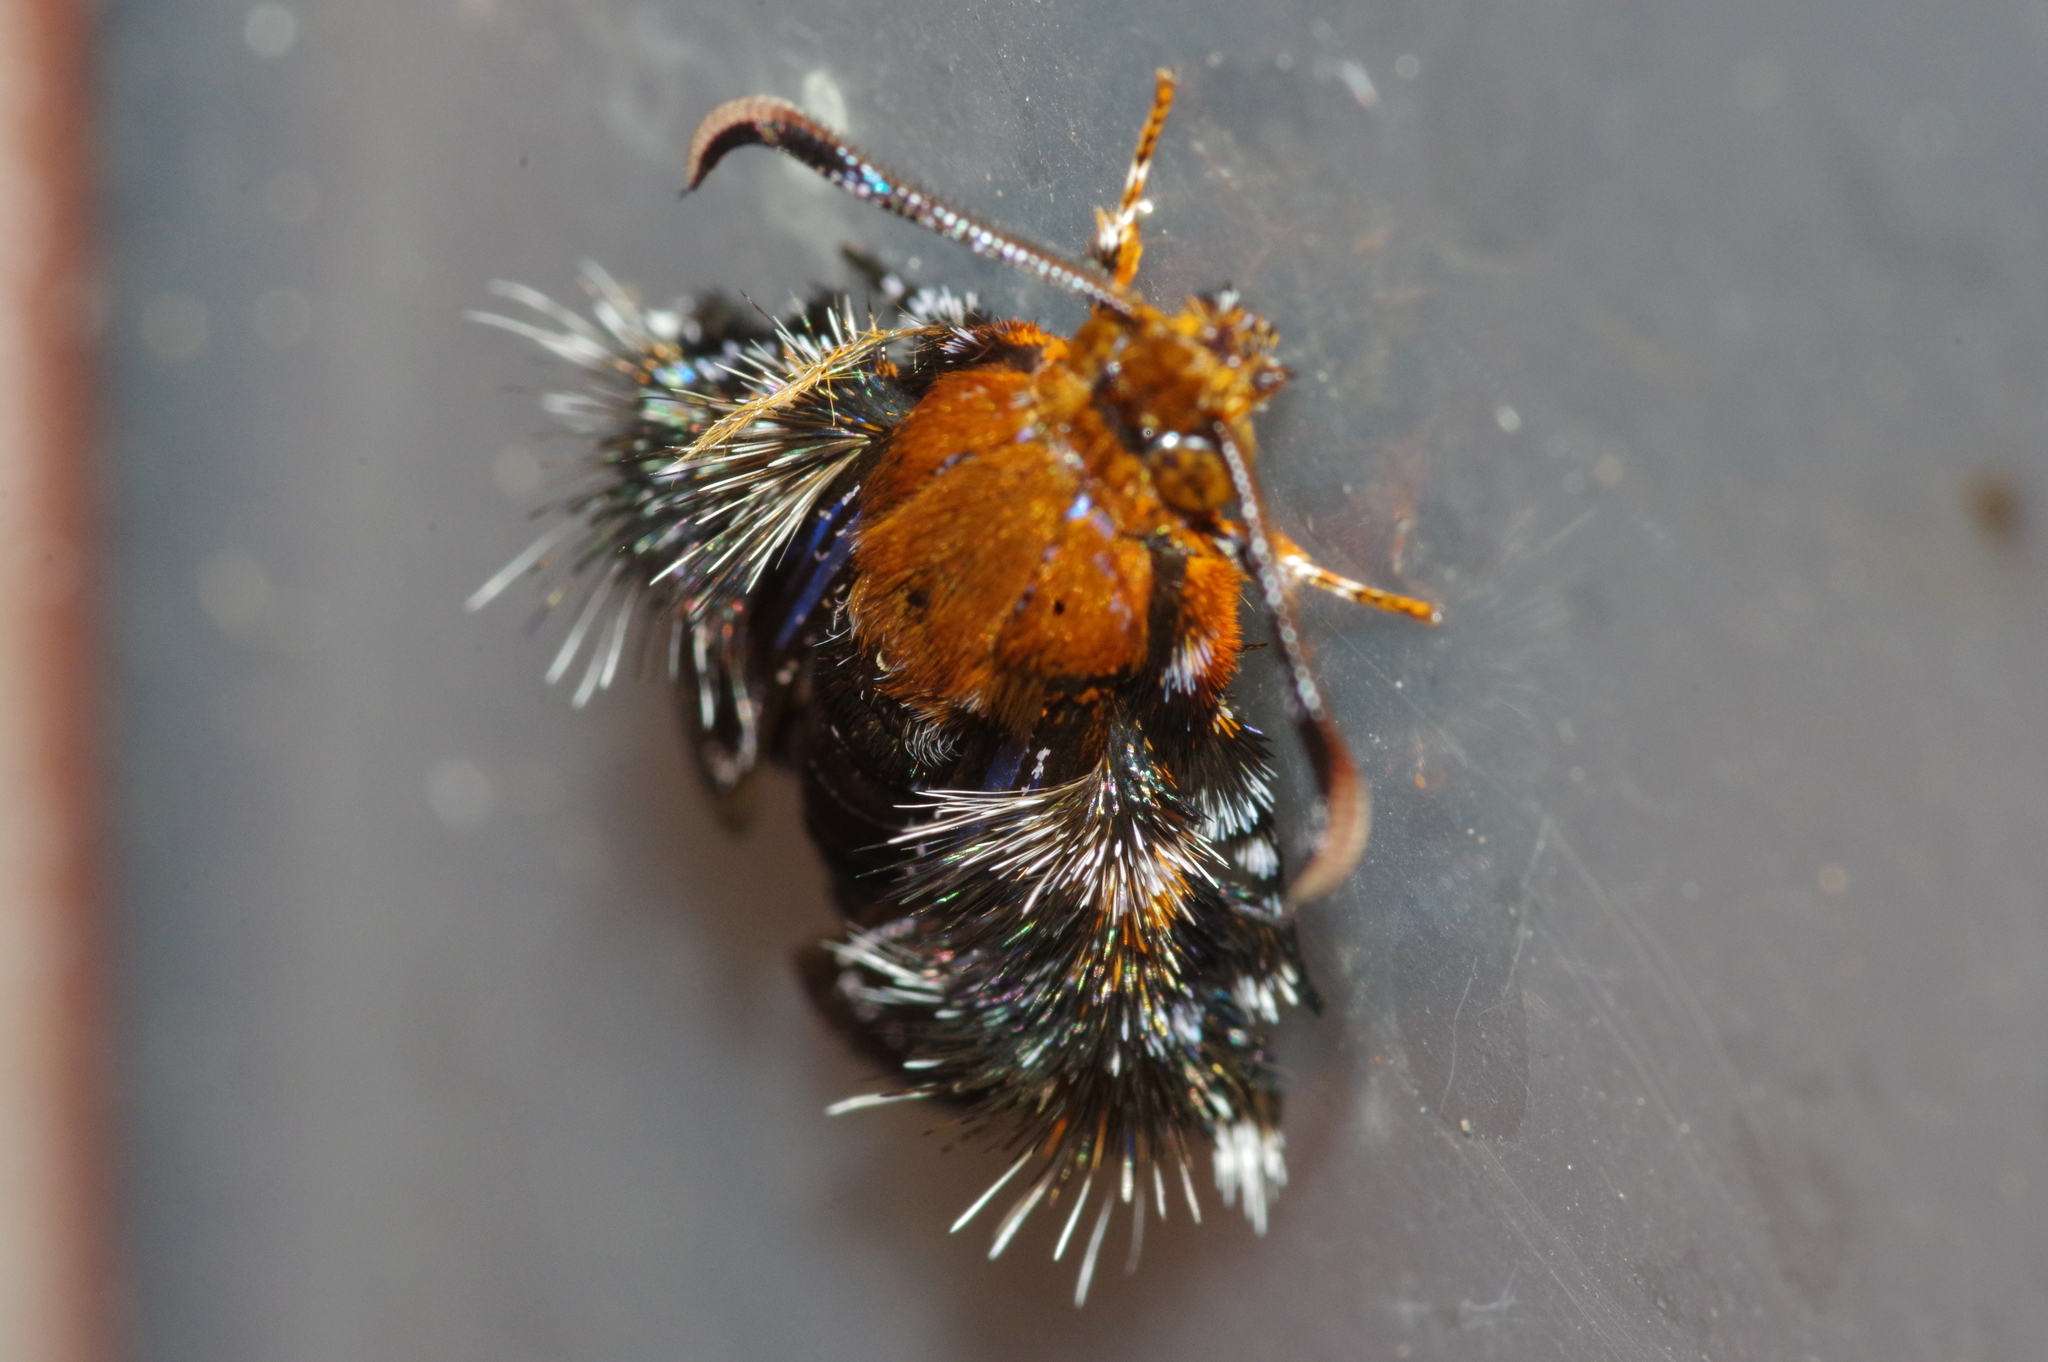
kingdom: Animalia
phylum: Arthropoda
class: Insecta
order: Lepidoptera
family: Sesiidae
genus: Macroscelesia
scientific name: Macroscelesia okinawana
